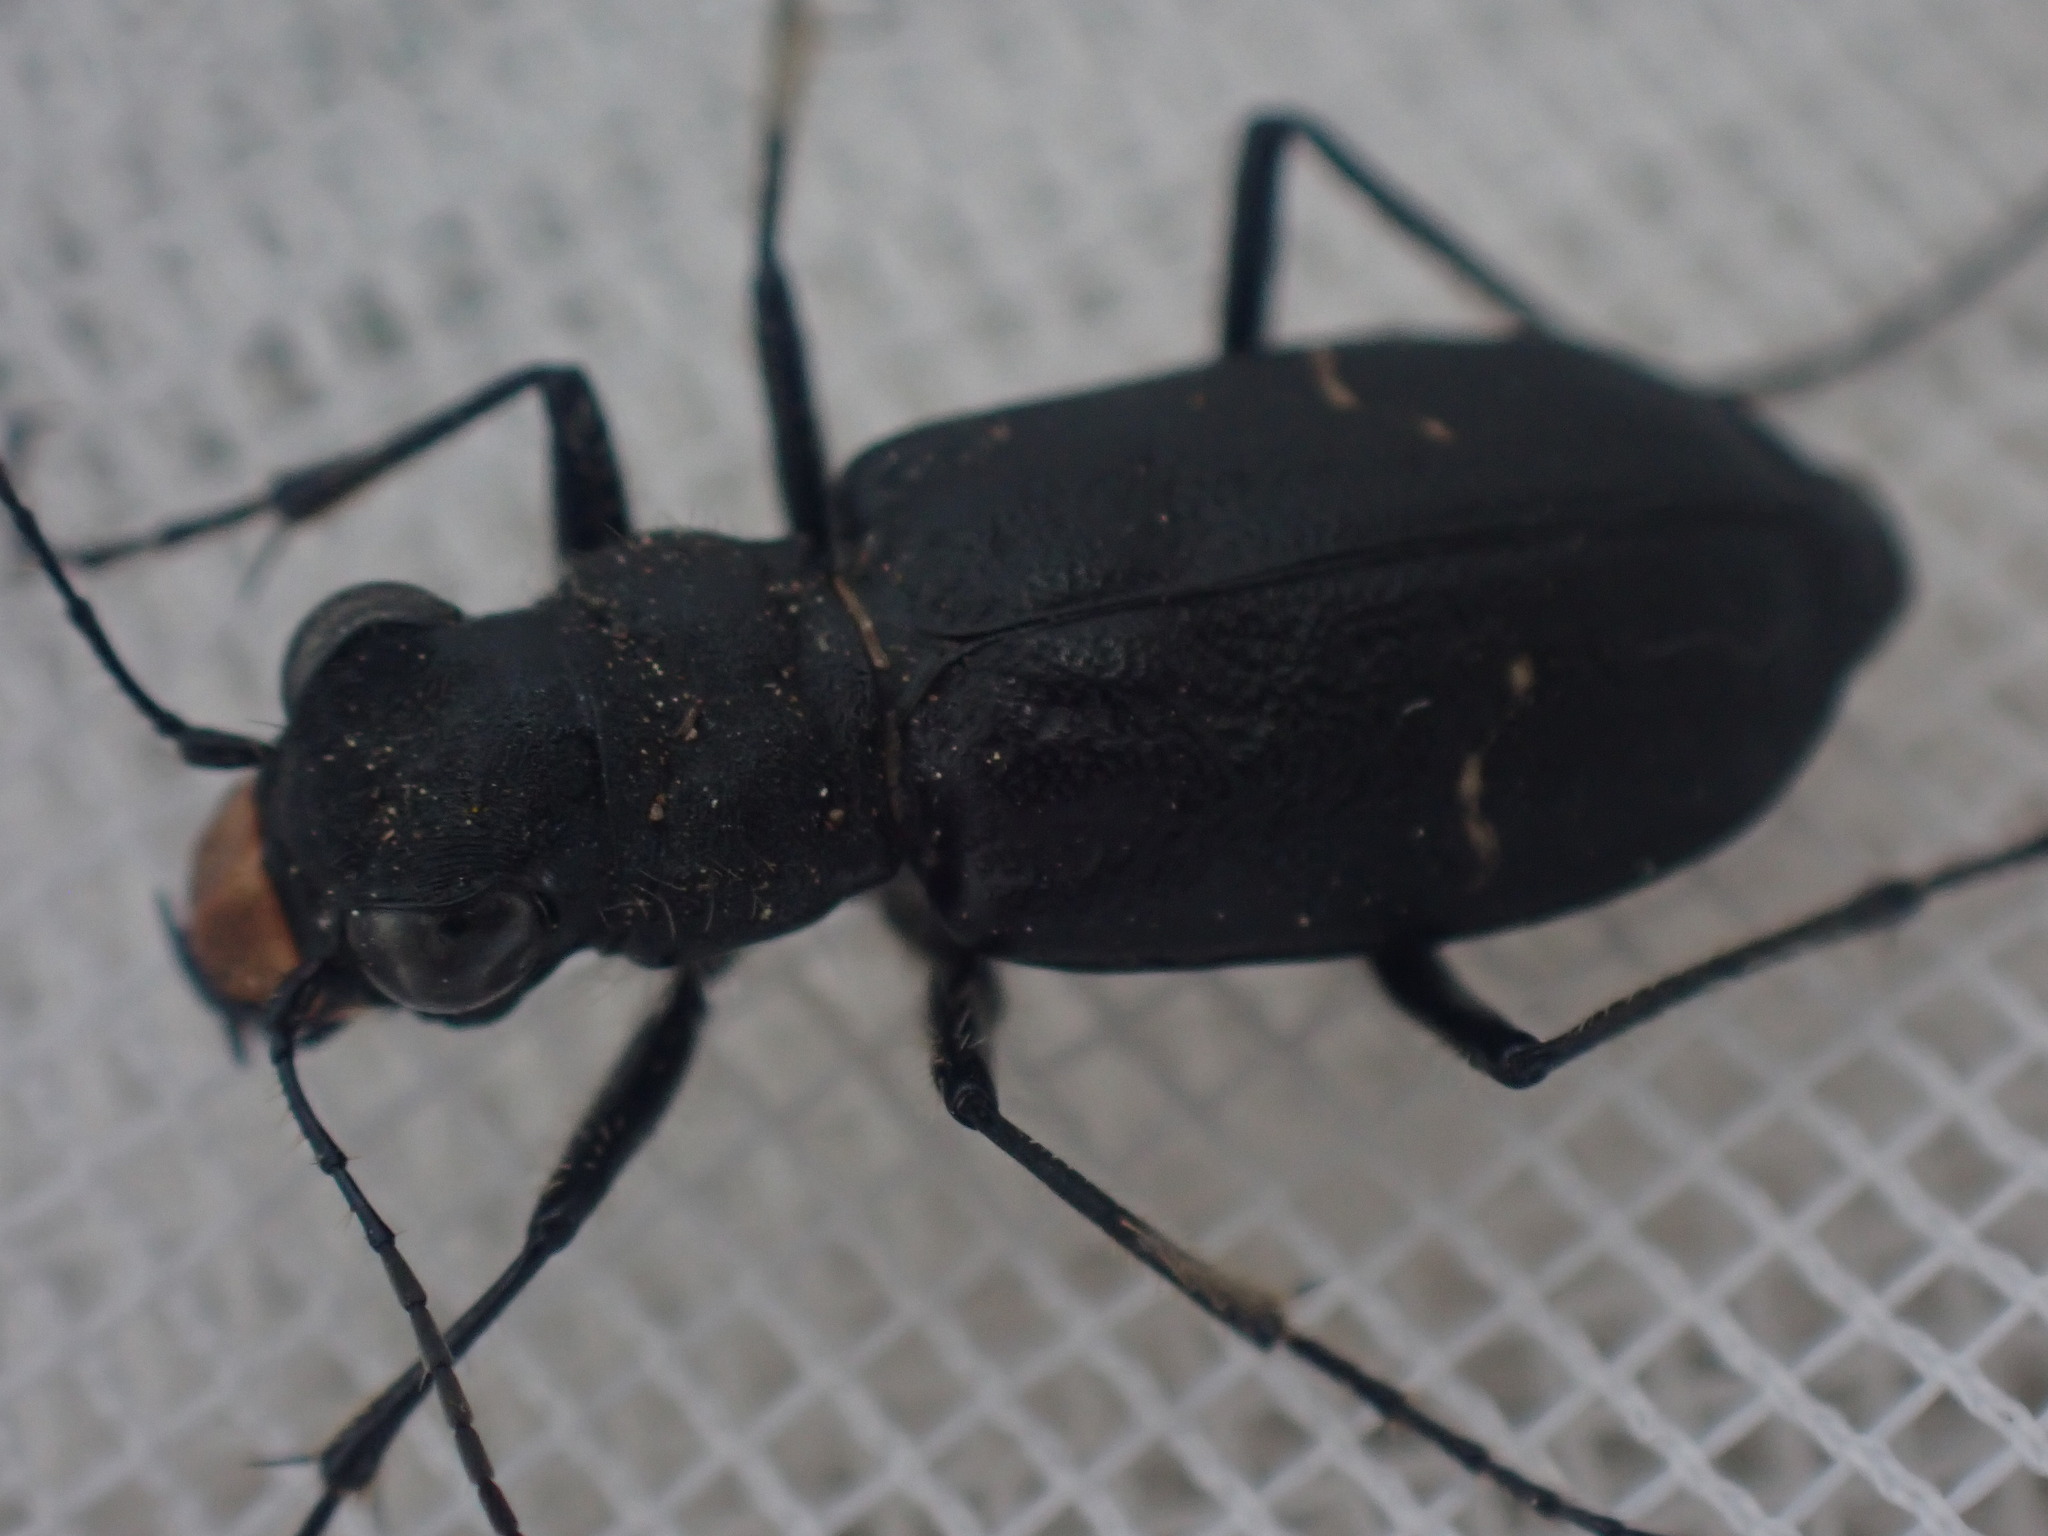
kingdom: Animalia
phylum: Arthropoda
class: Insecta
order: Coleoptera
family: Carabidae
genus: Cicindela
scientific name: Cicindela longilabris
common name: Boreal long-lipped tiger beetle
